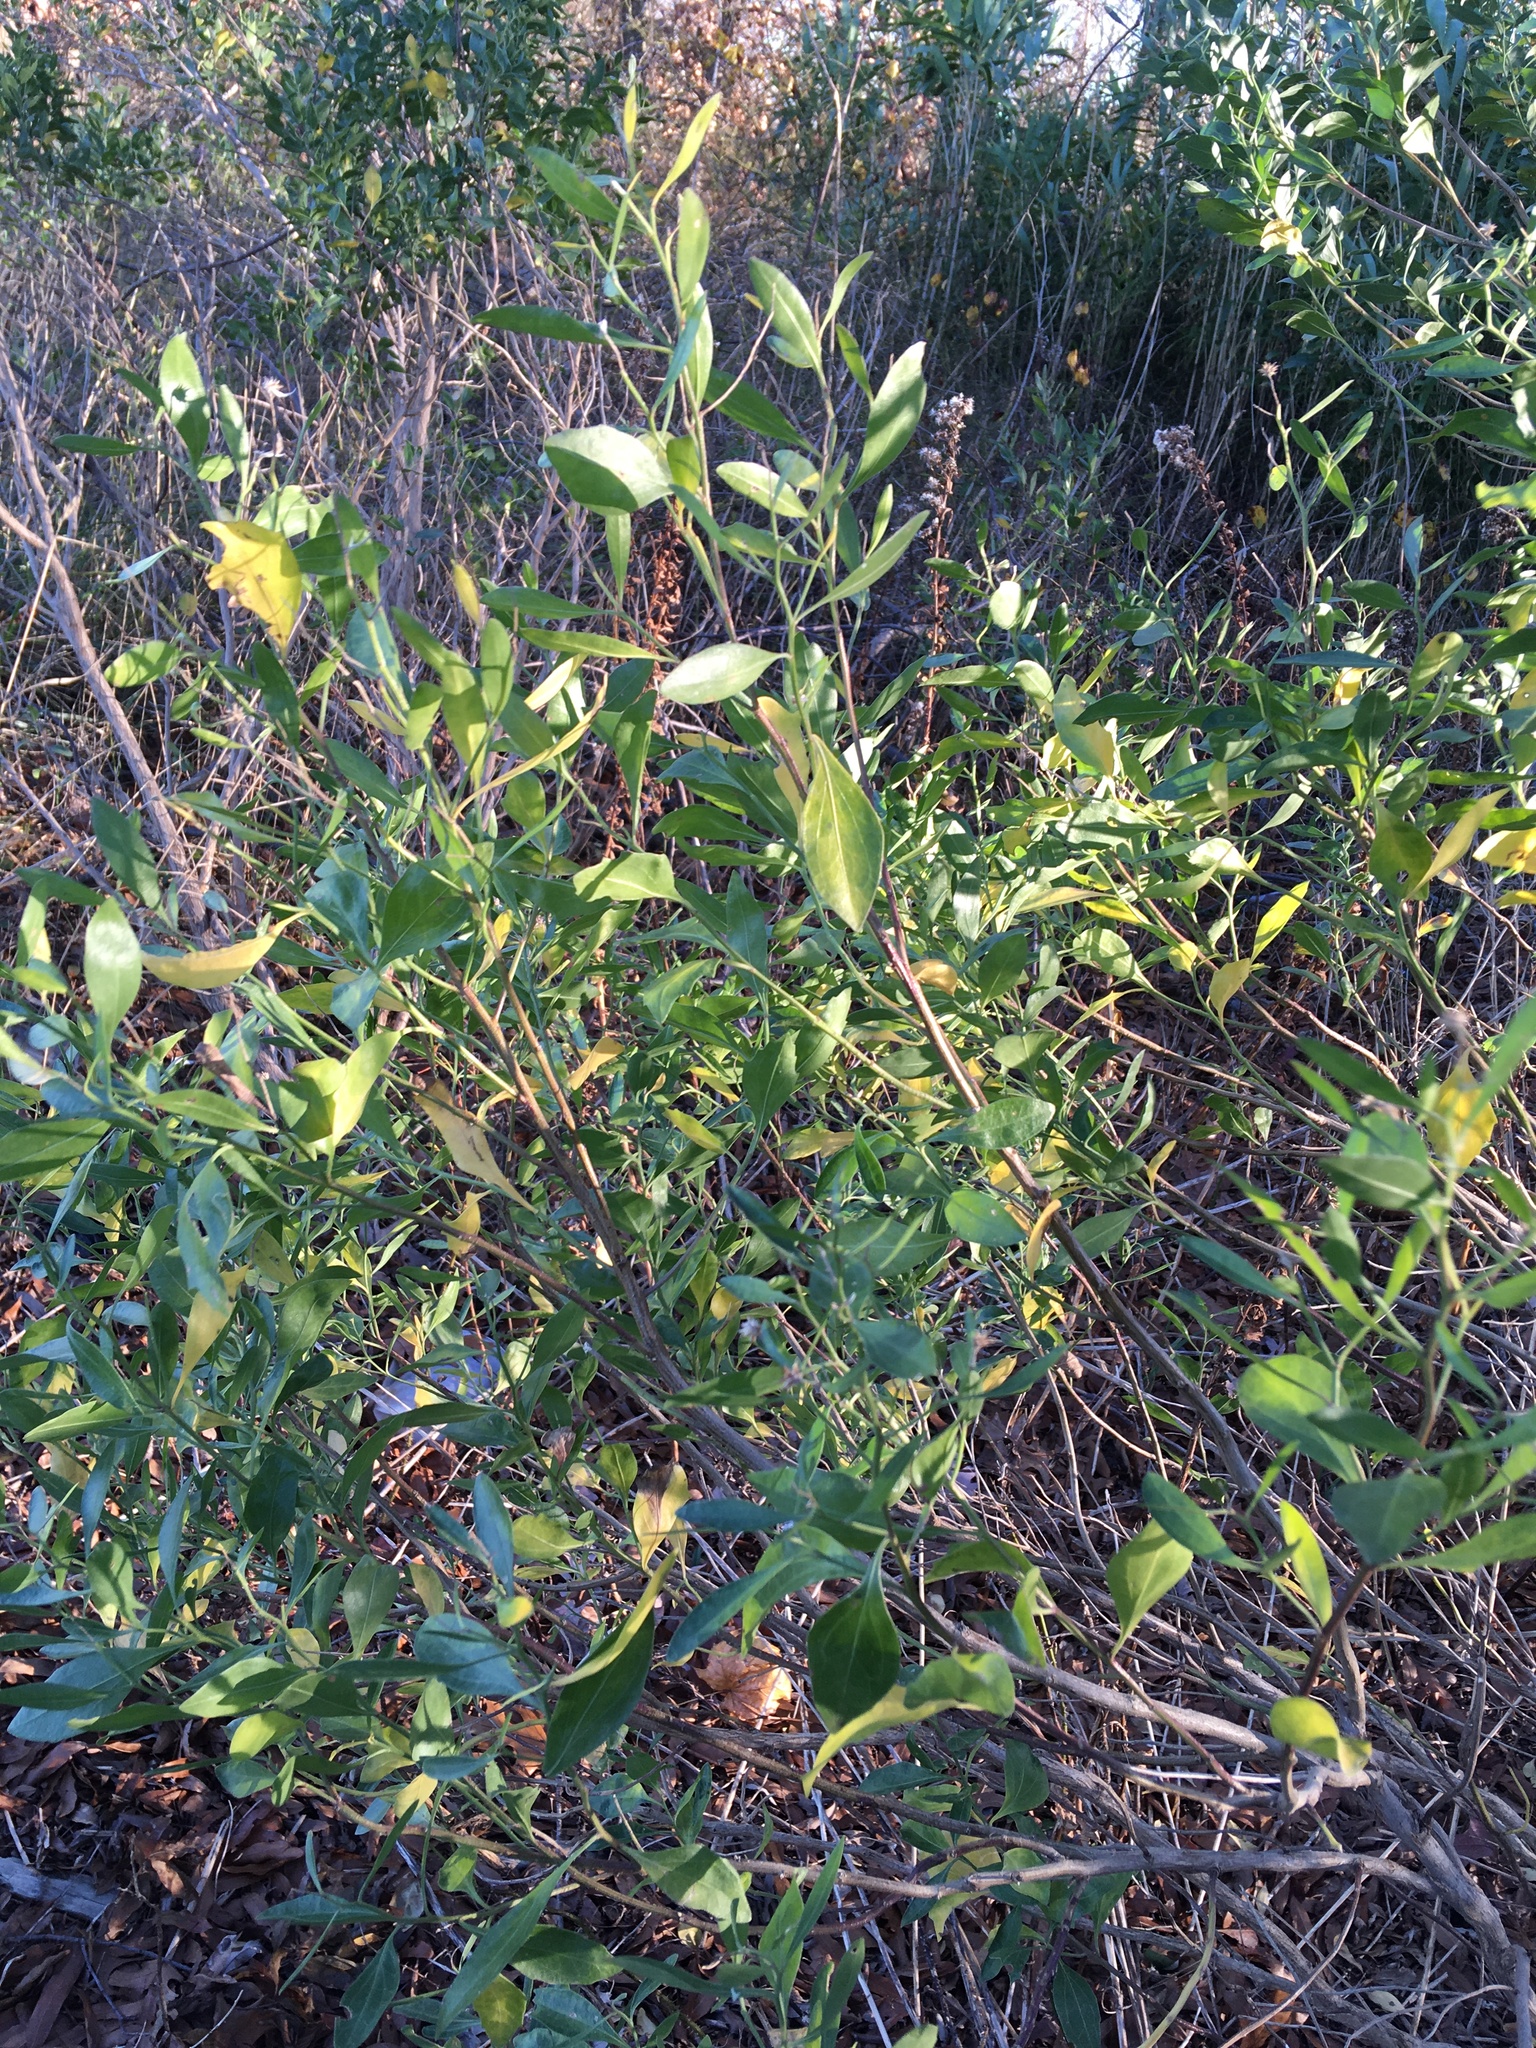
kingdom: Plantae
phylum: Tracheophyta
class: Magnoliopsida
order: Asterales
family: Asteraceae
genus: Baccharis
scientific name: Baccharis halimifolia
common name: Eastern baccharis
